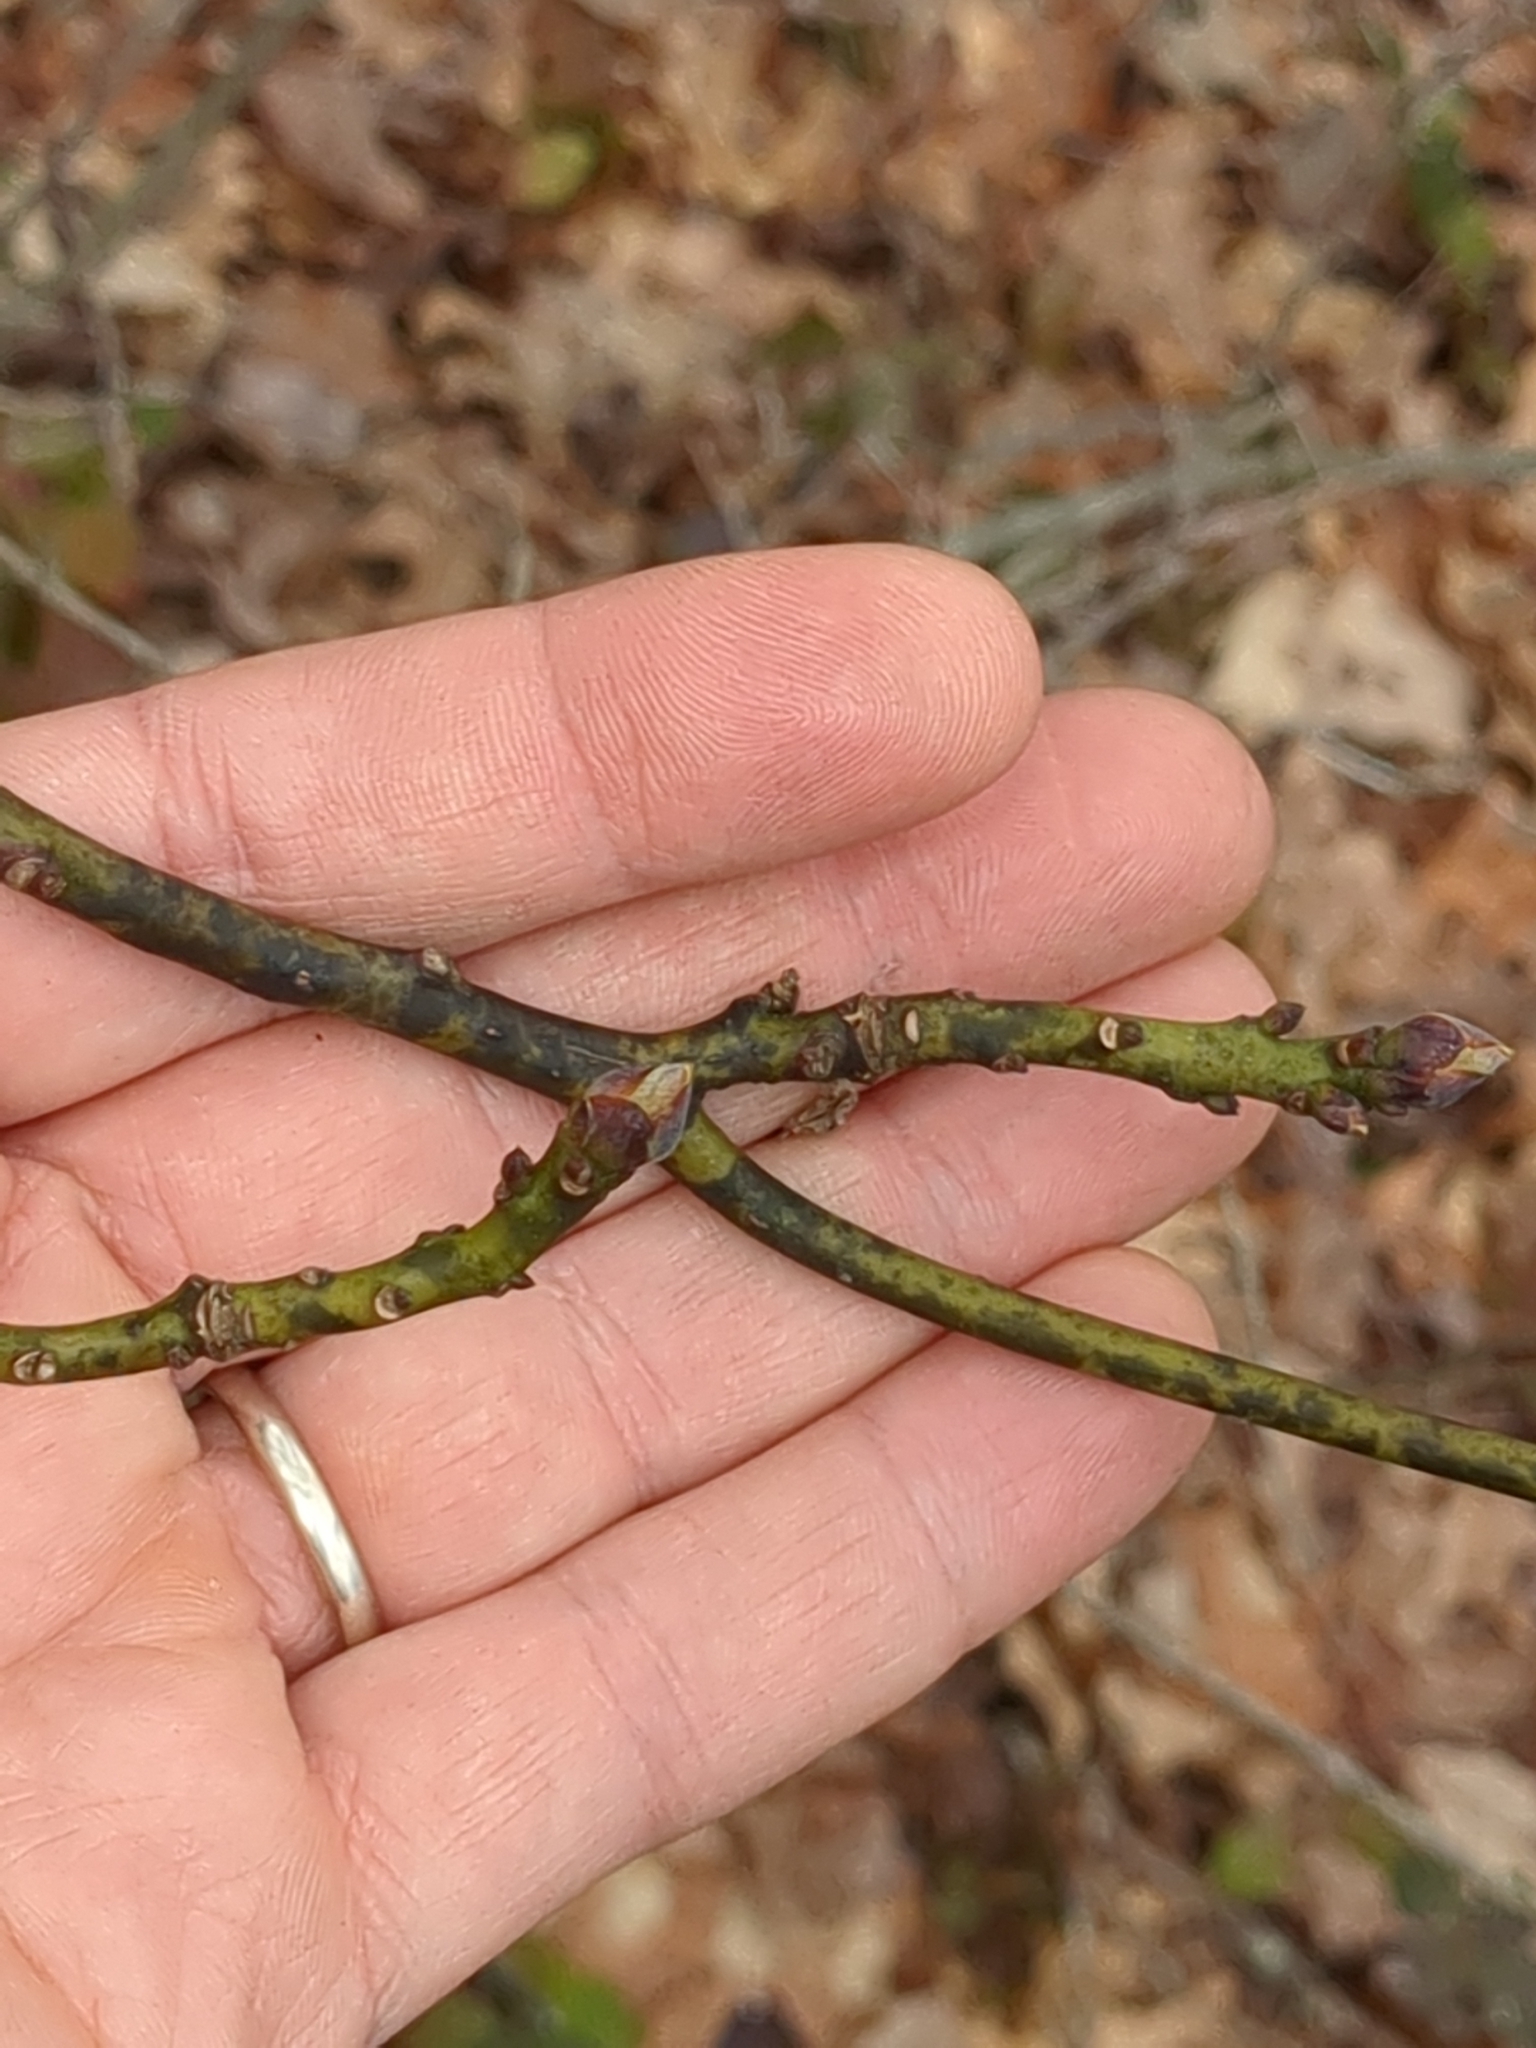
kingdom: Plantae
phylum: Tracheophyta
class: Magnoliopsida
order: Laurales
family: Lauraceae
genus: Sassafras
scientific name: Sassafras albidum
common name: Sassafras
